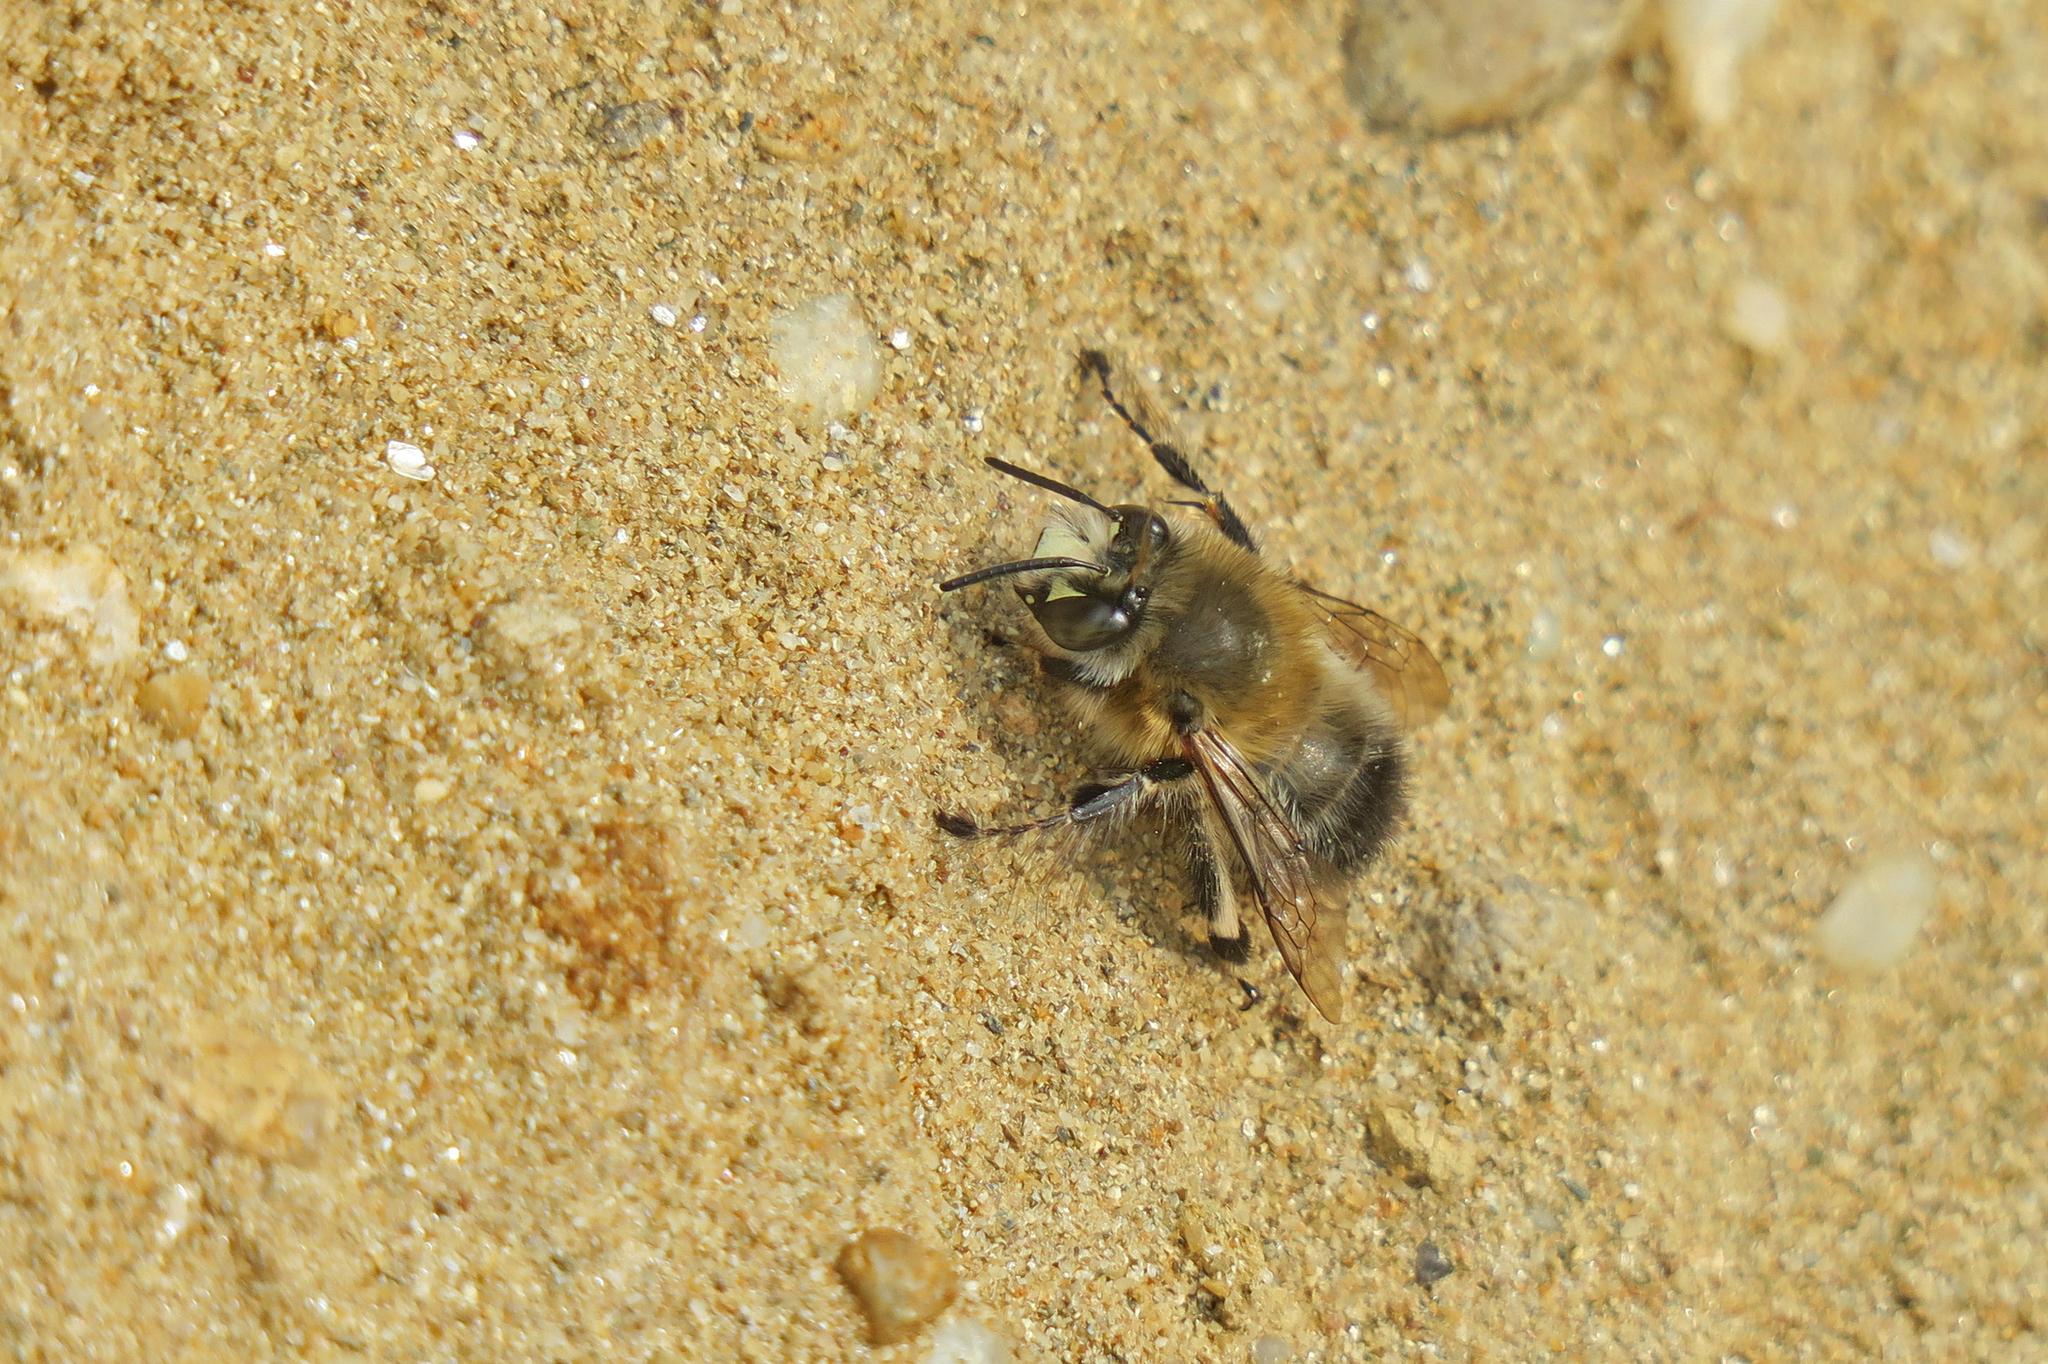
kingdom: Animalia
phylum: Arthropoda
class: Insecta
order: Hymenoptera
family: Apidae
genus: Anthophora
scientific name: Anthophora plumipes
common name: Hairy-footed flower bee
